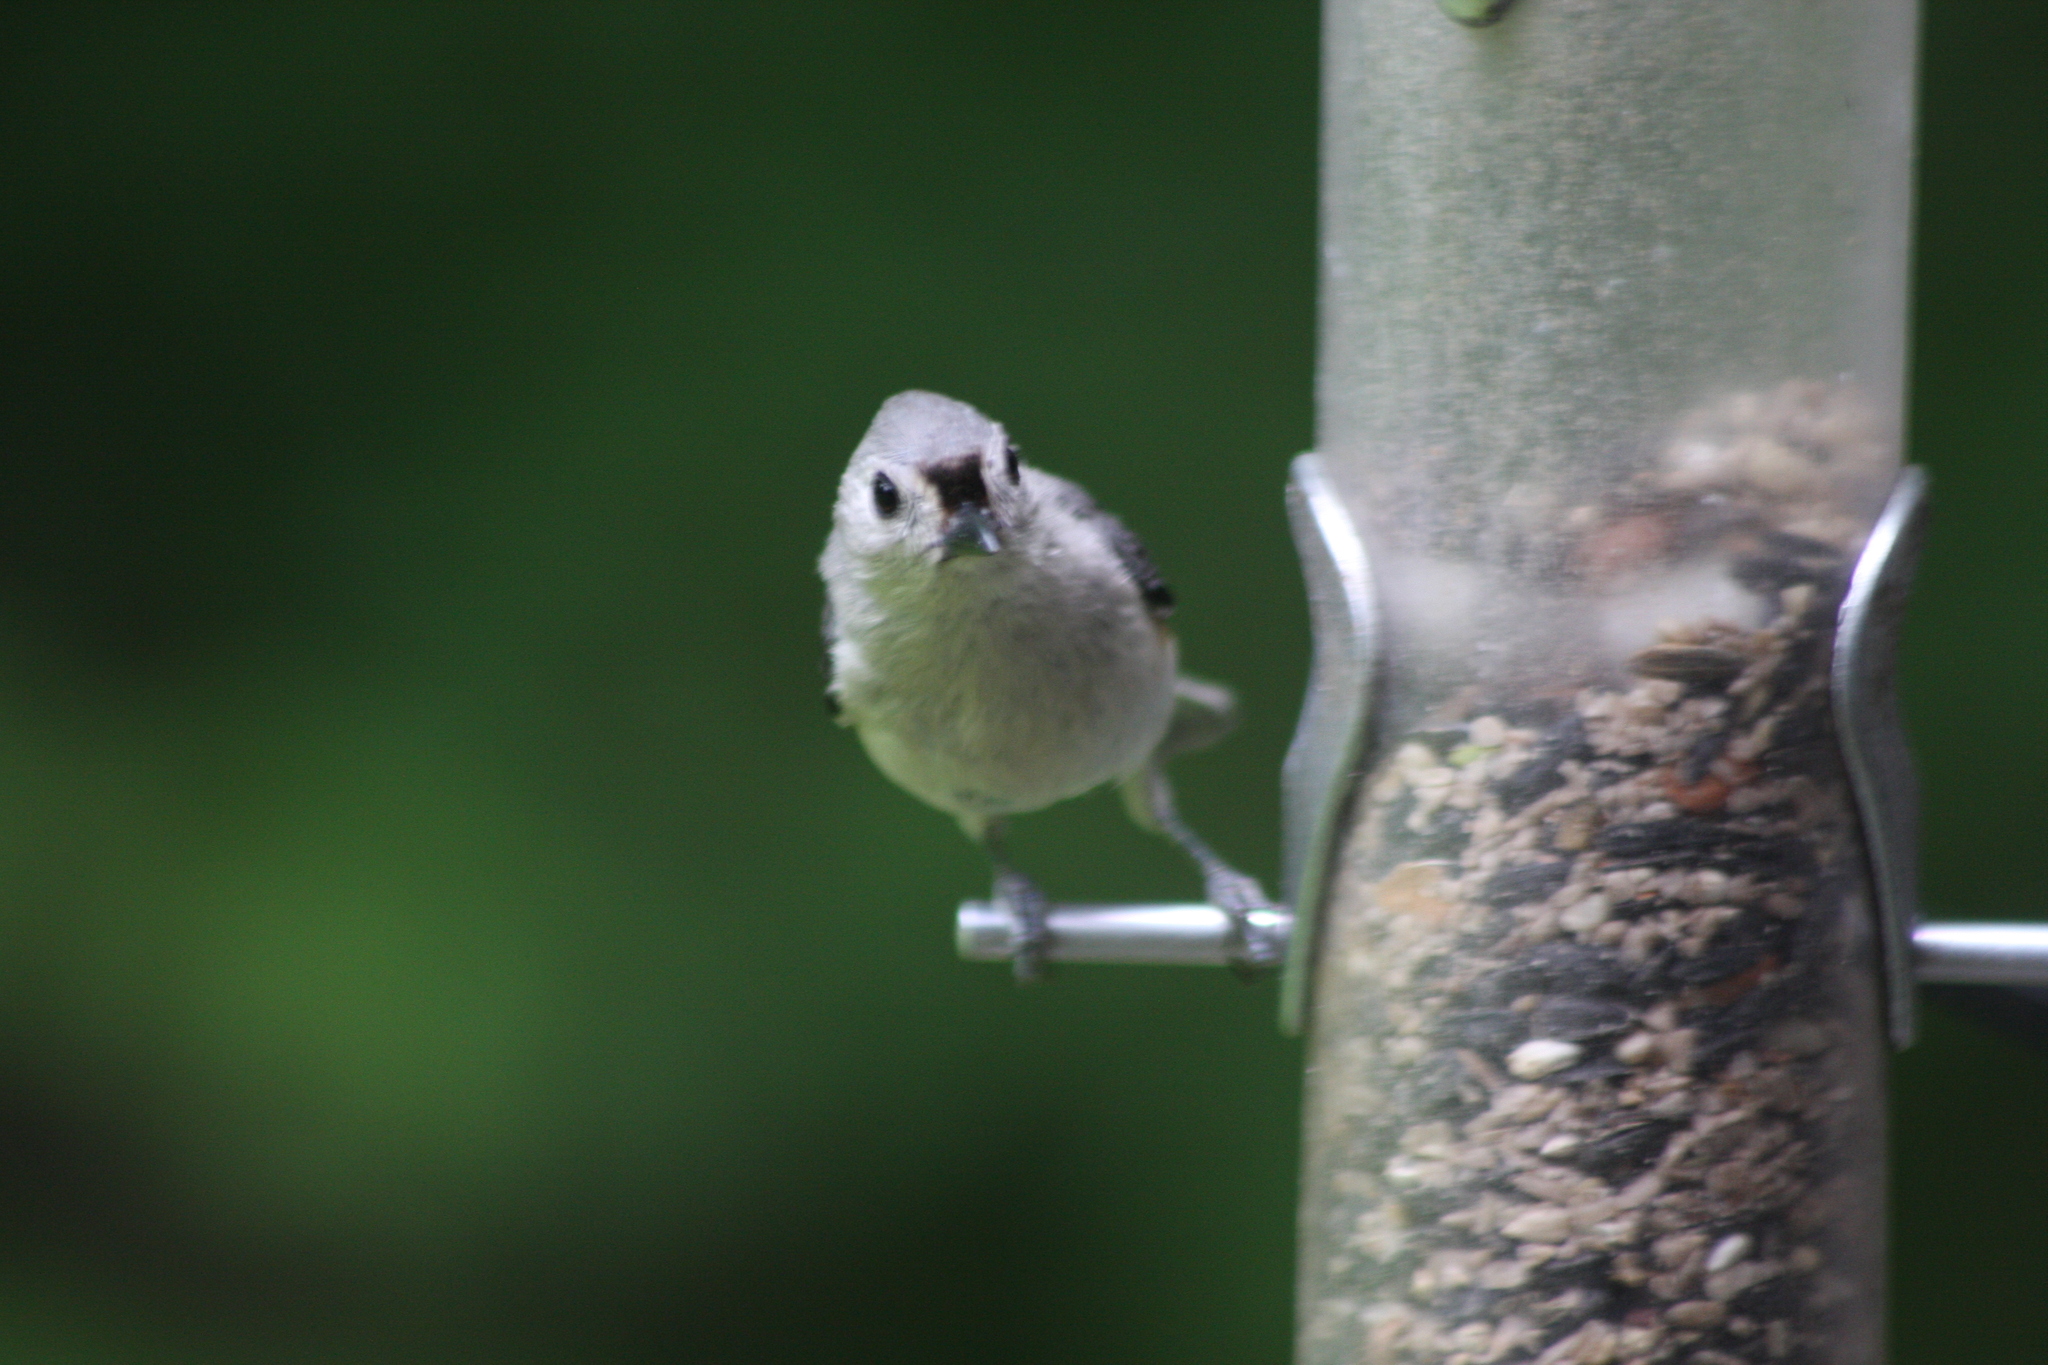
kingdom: Animalia
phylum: Chordata
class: Aves
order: Passeriformes
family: Paridae
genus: Baeolophus
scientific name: Baeolophus bicolor
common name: Tufted titmouse
